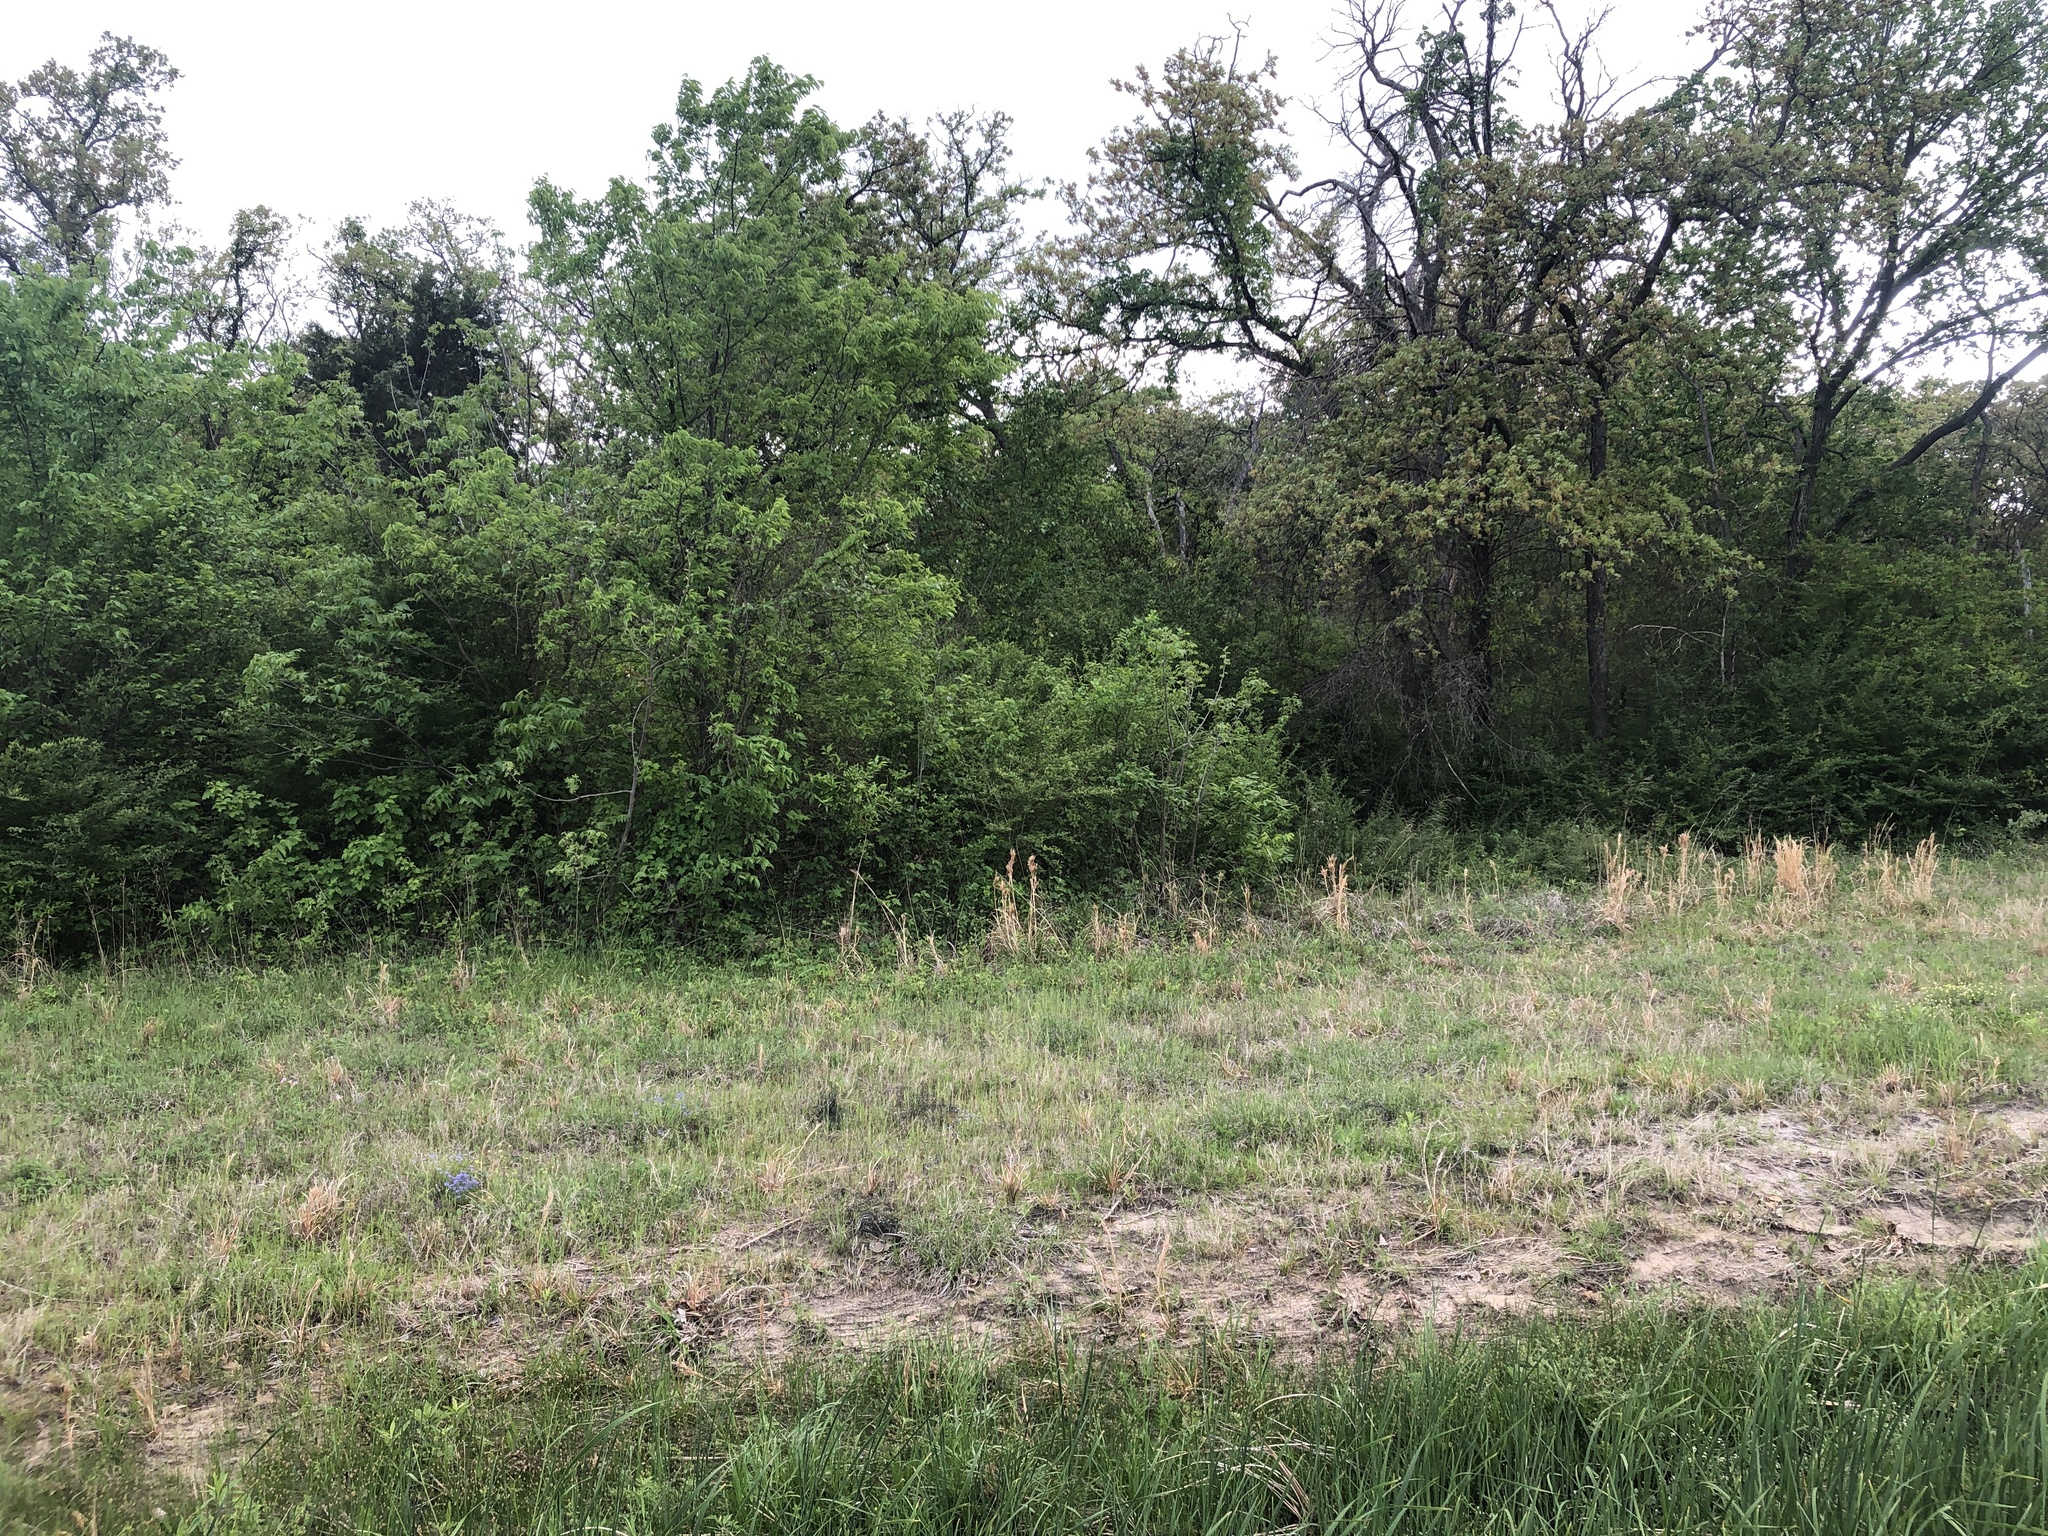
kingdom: Animalia
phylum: Chordata
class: Aves
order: Passeriformes
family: Vireonidae
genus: Vireo
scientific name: Vireo griseus
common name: White-eyed vireo
